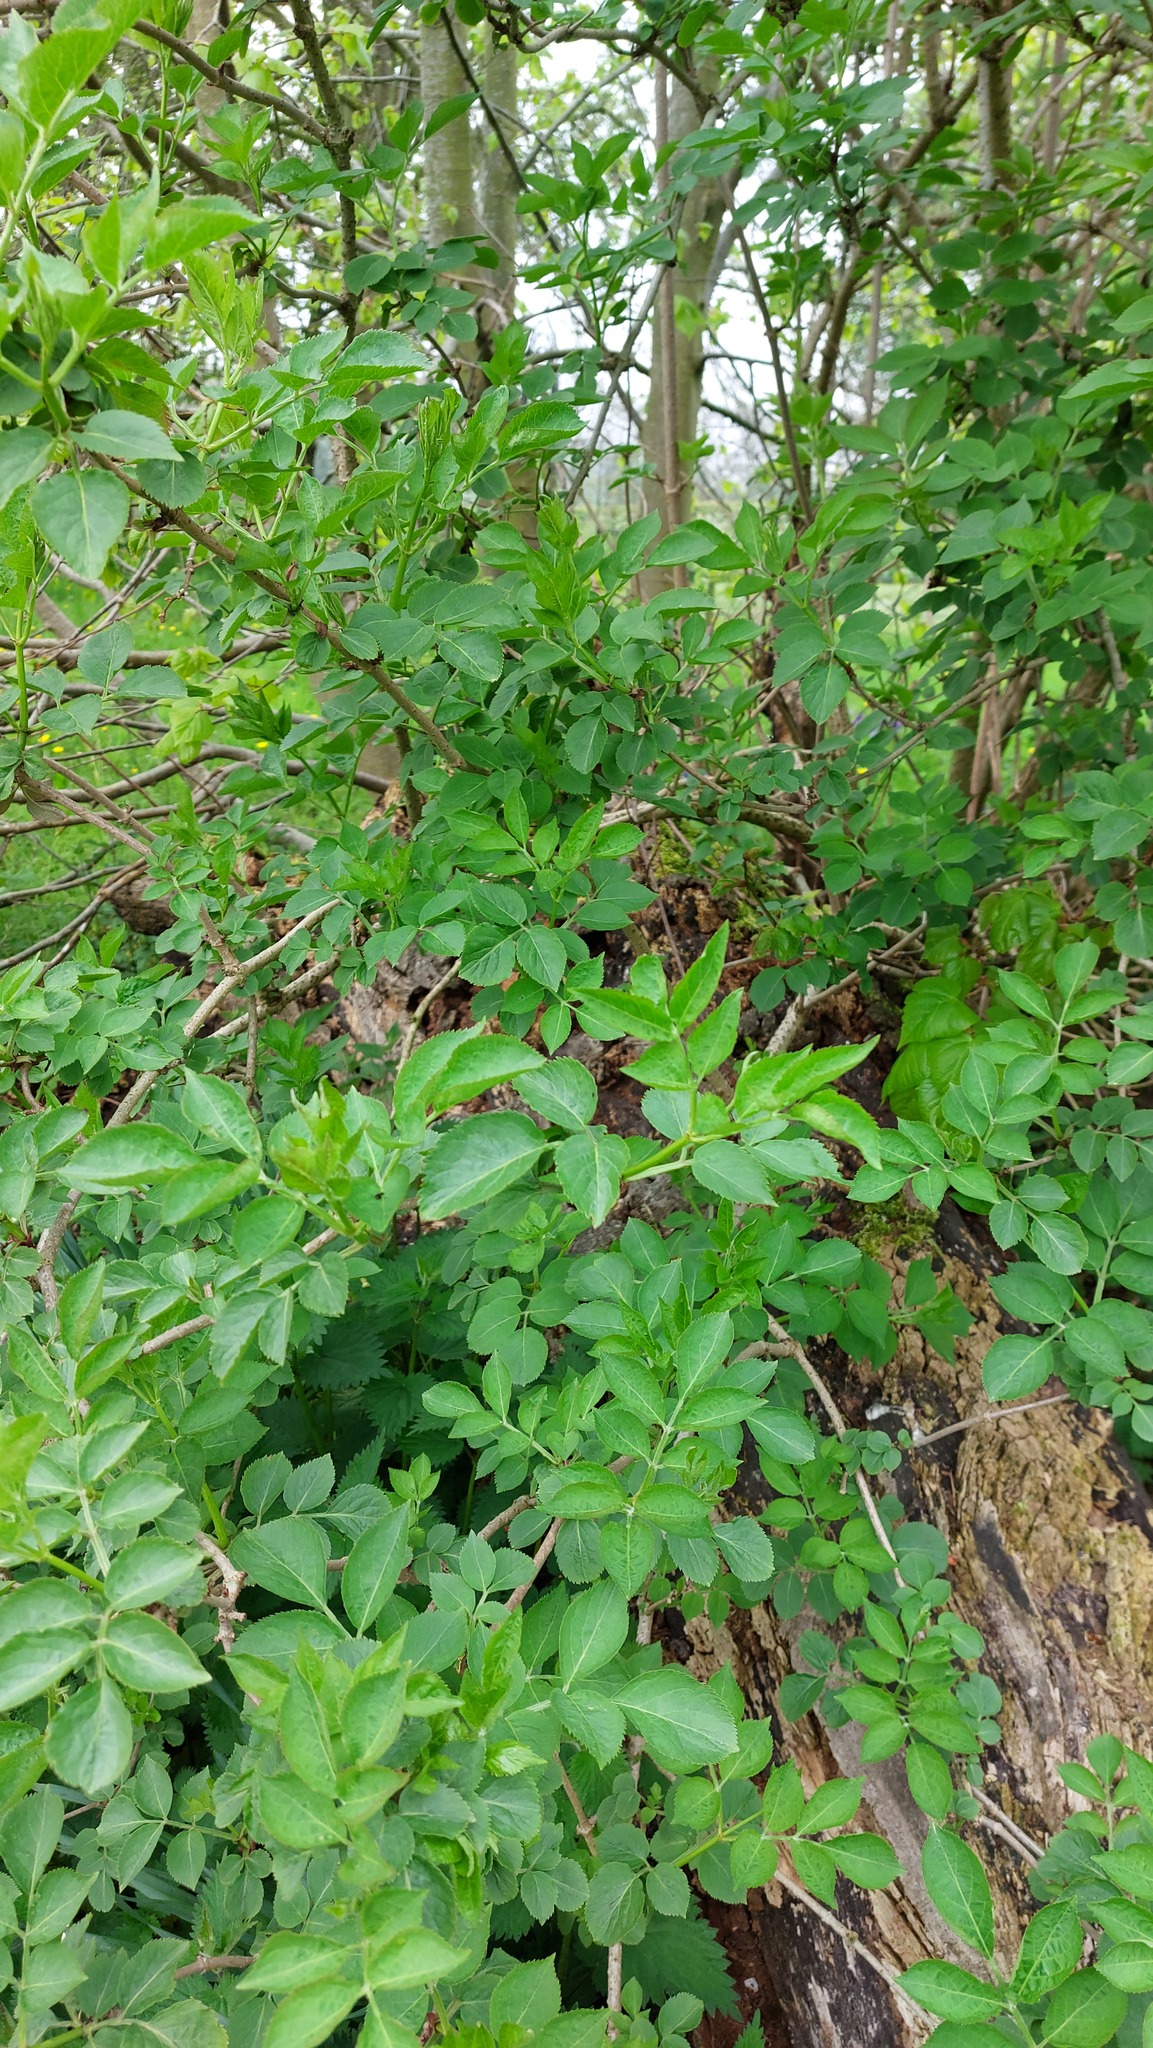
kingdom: Plantae
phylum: Tracheophyta
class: Magnoliopsida
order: Dipsacales
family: Viburnaceae
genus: Sambucus
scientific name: Sambucus nigra
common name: Elder
